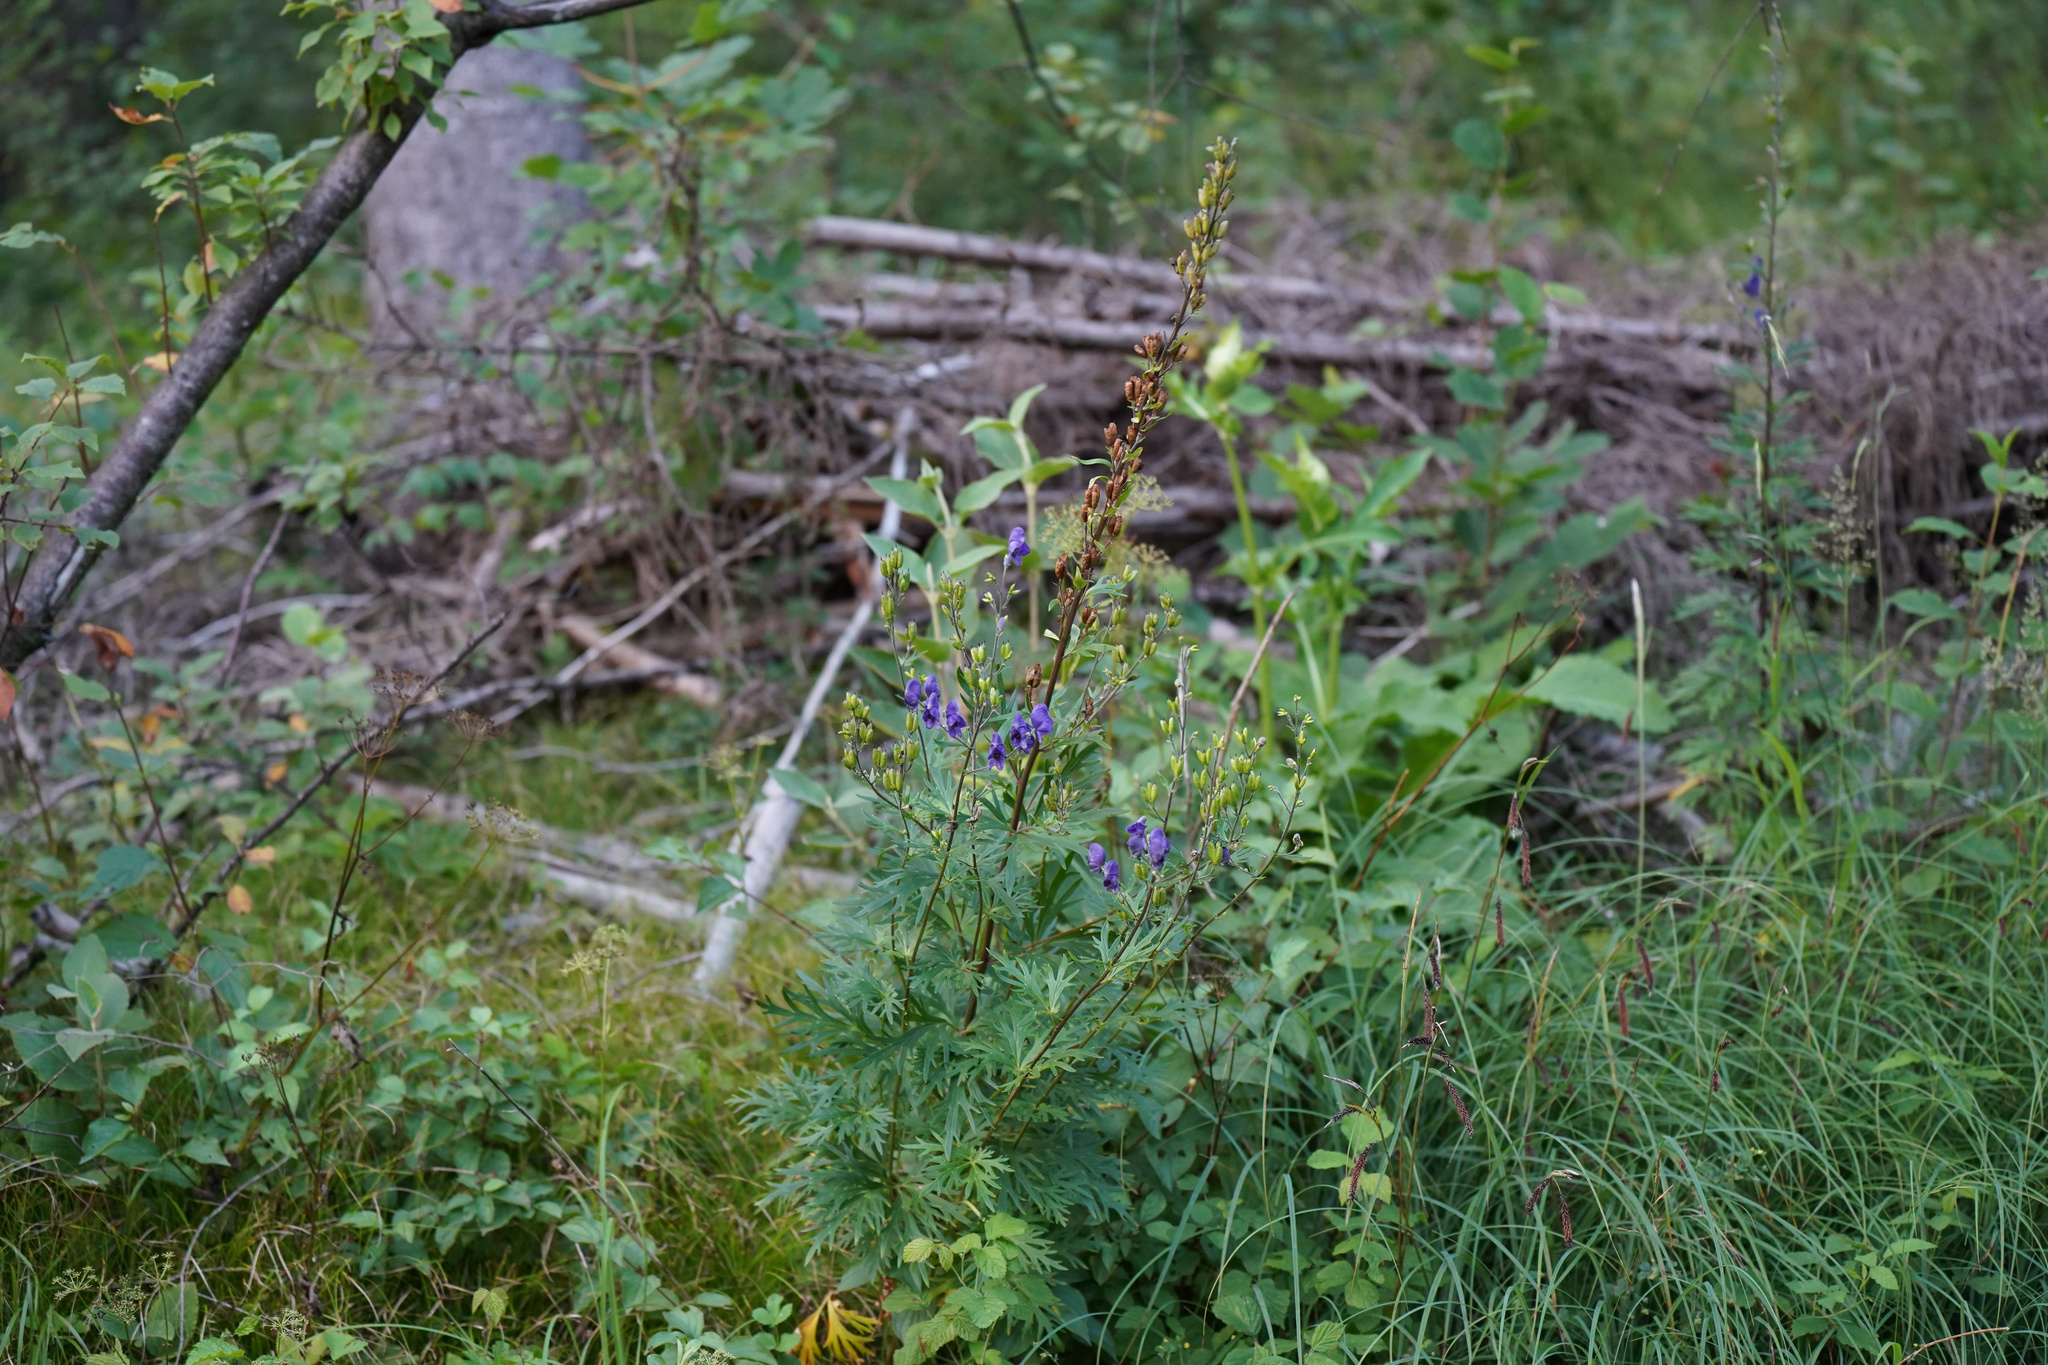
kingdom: Plantae
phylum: Tracheophyta
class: Magnoliopsida
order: Ranunculales
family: Ranunculaceae
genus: Aconitum
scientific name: Aconitum napellus
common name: Garden monkshood
